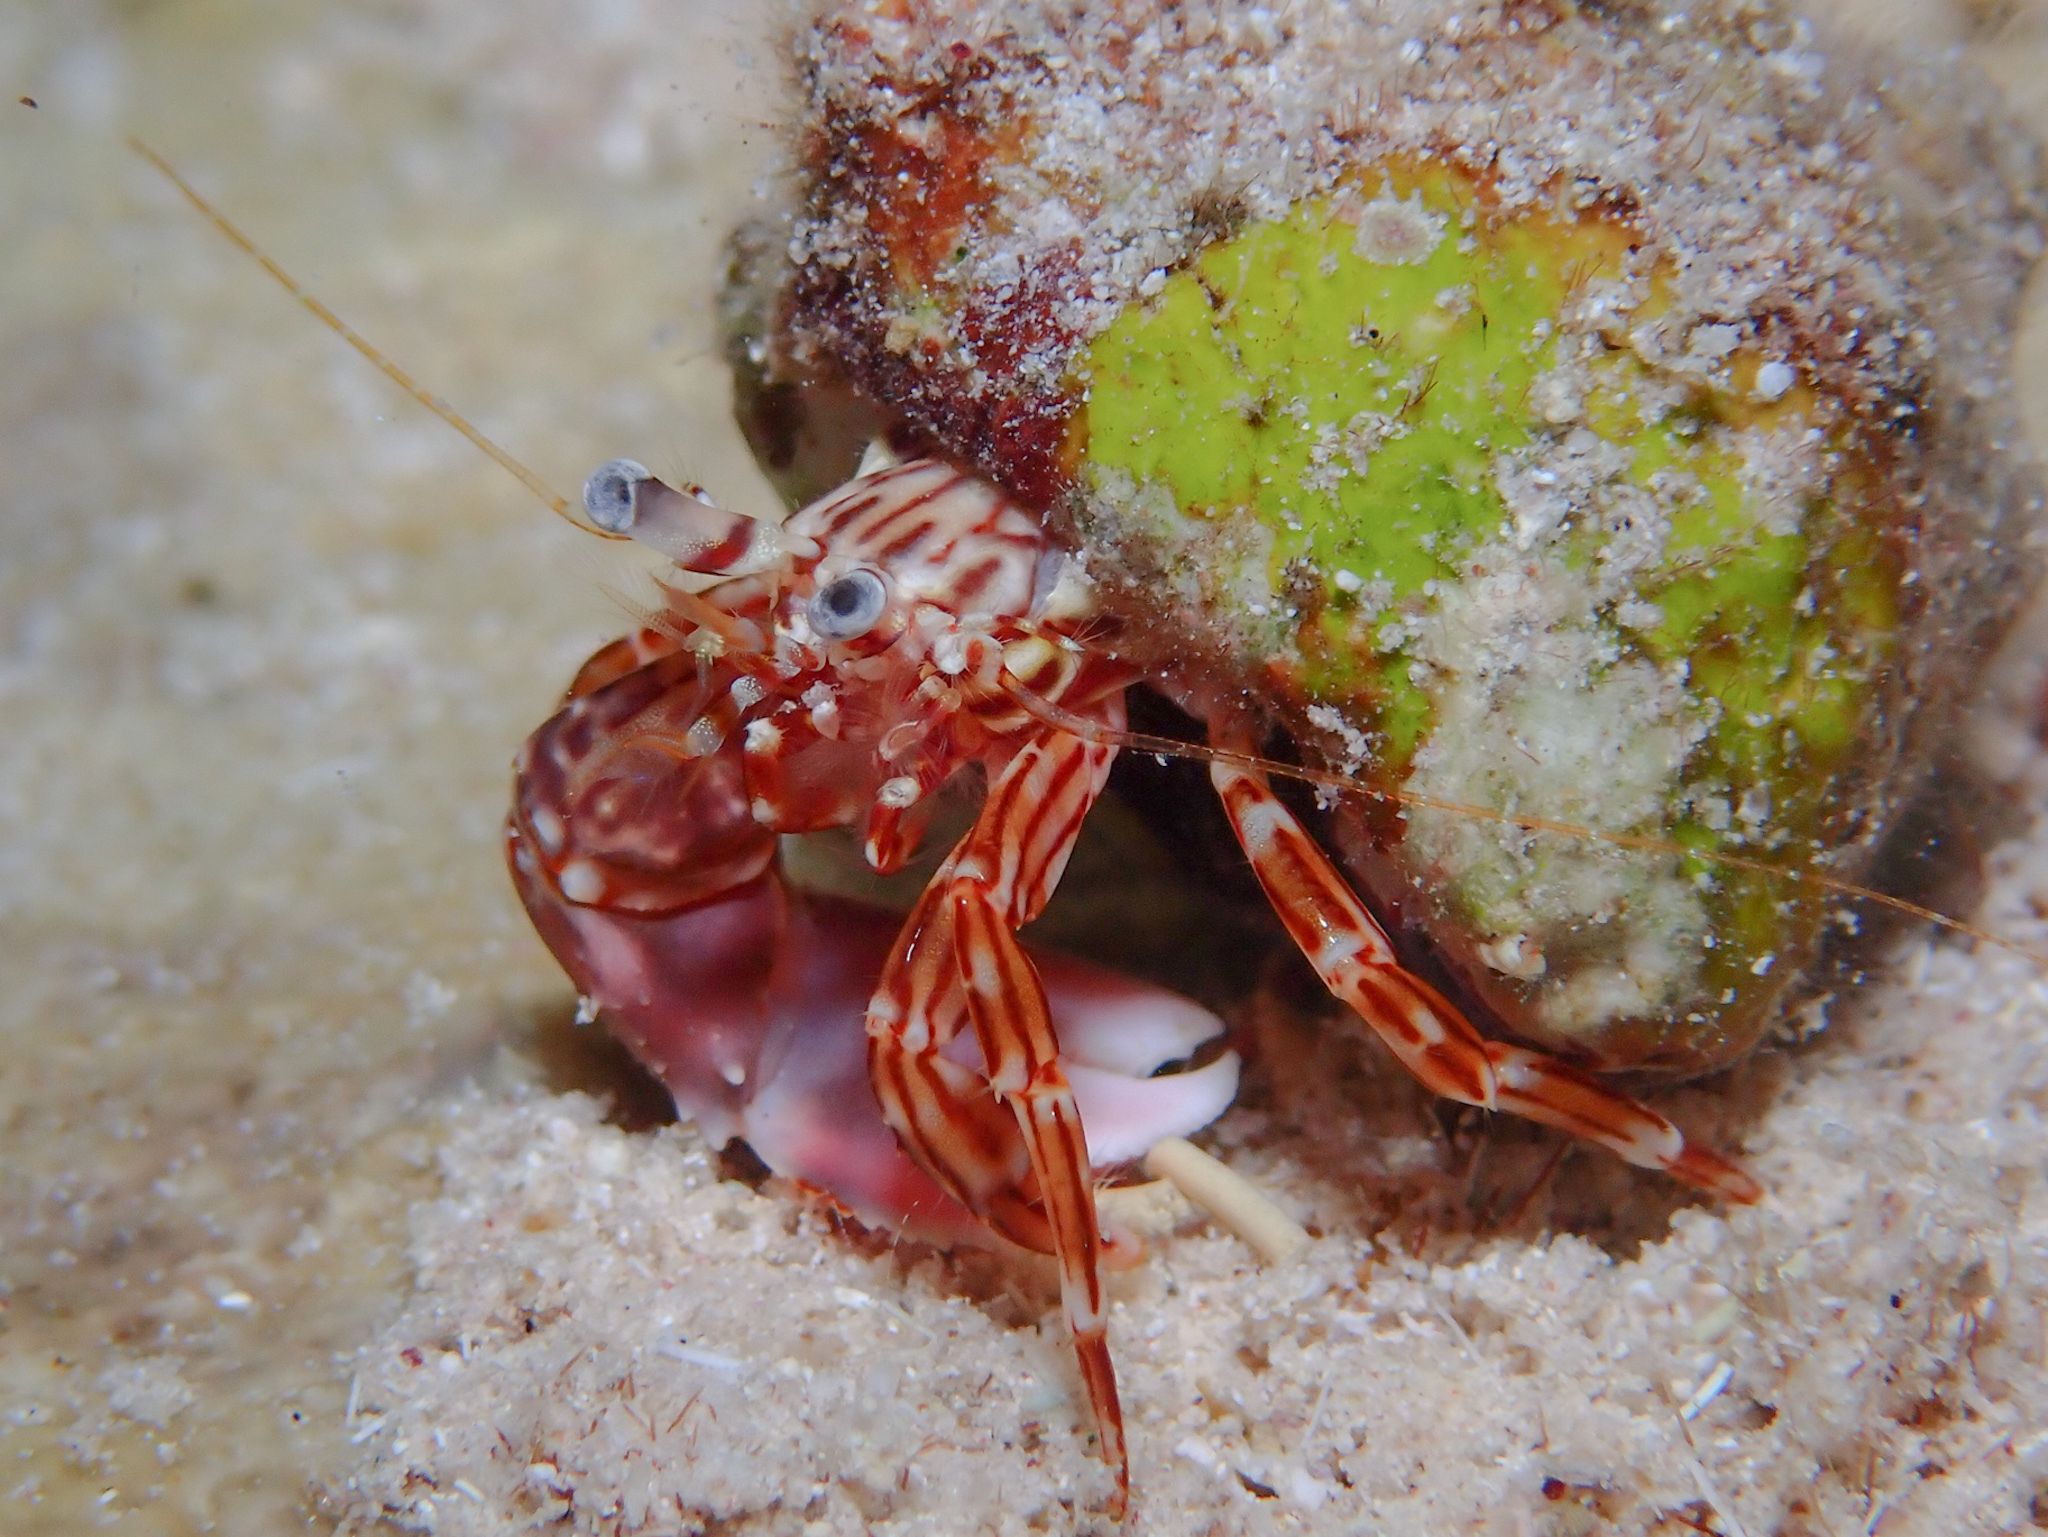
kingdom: Animalia
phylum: Arthropoda
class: Malacostraca
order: Decapoda
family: Paguridae
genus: Phimochirus
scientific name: Phimochirus holthuisi
